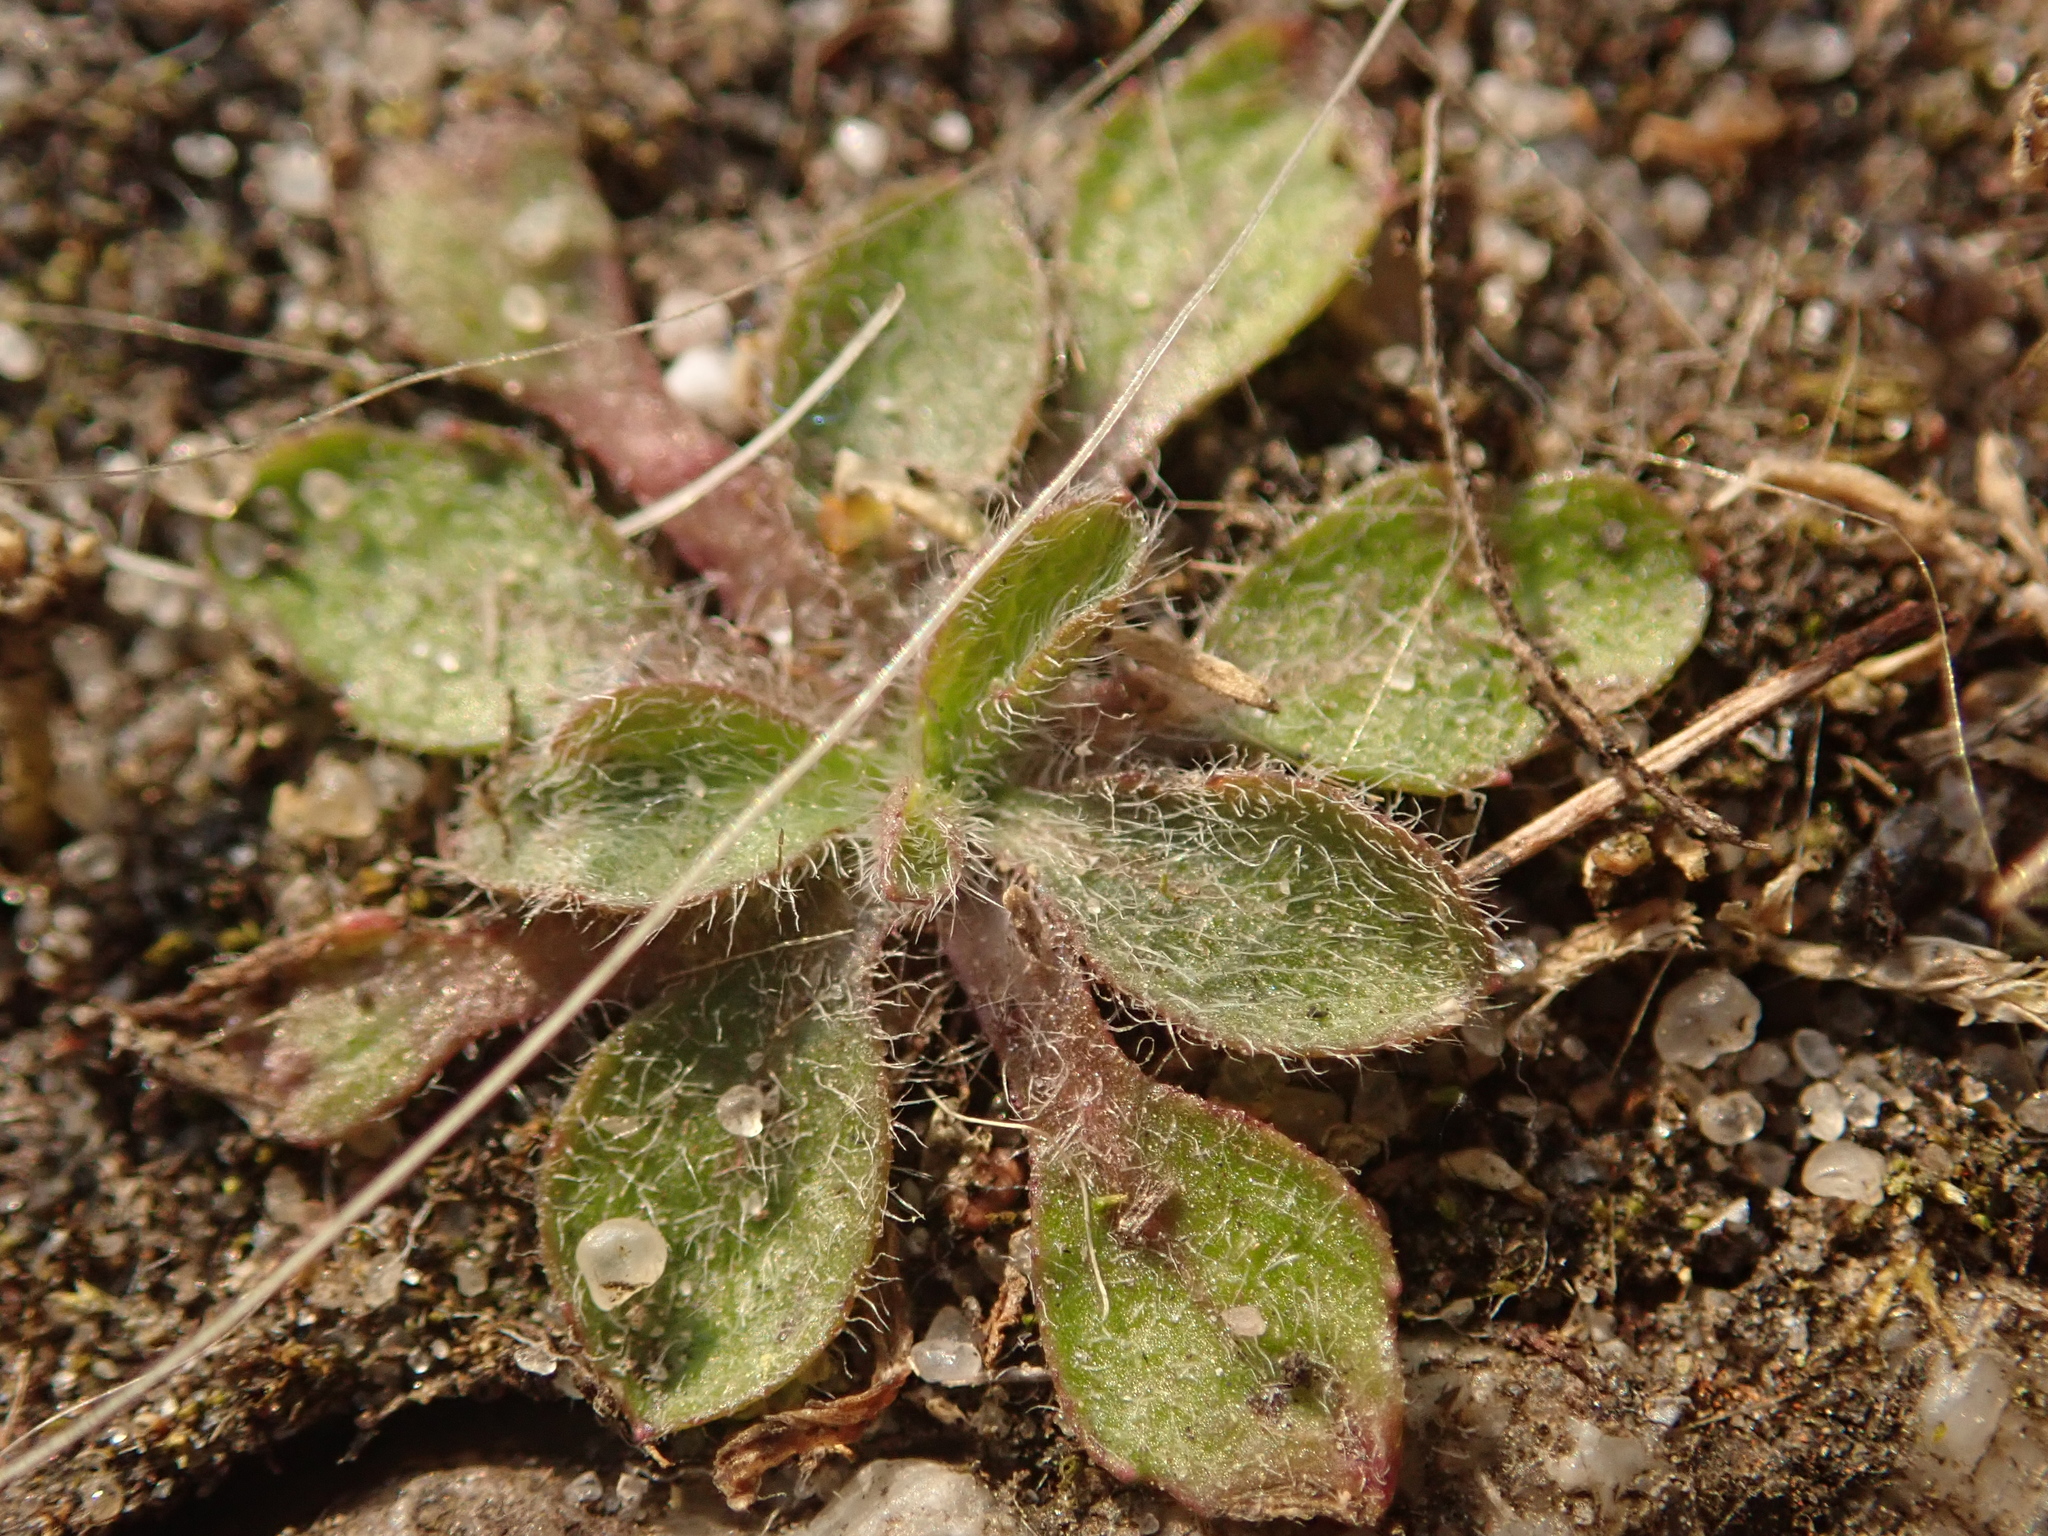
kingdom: Plantae
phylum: Tracheophyta
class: Magnoliopsida
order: Brassicales
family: Brassicaceae
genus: Arabidopsis
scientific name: Arabidopsis thaliana
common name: Thale cress
